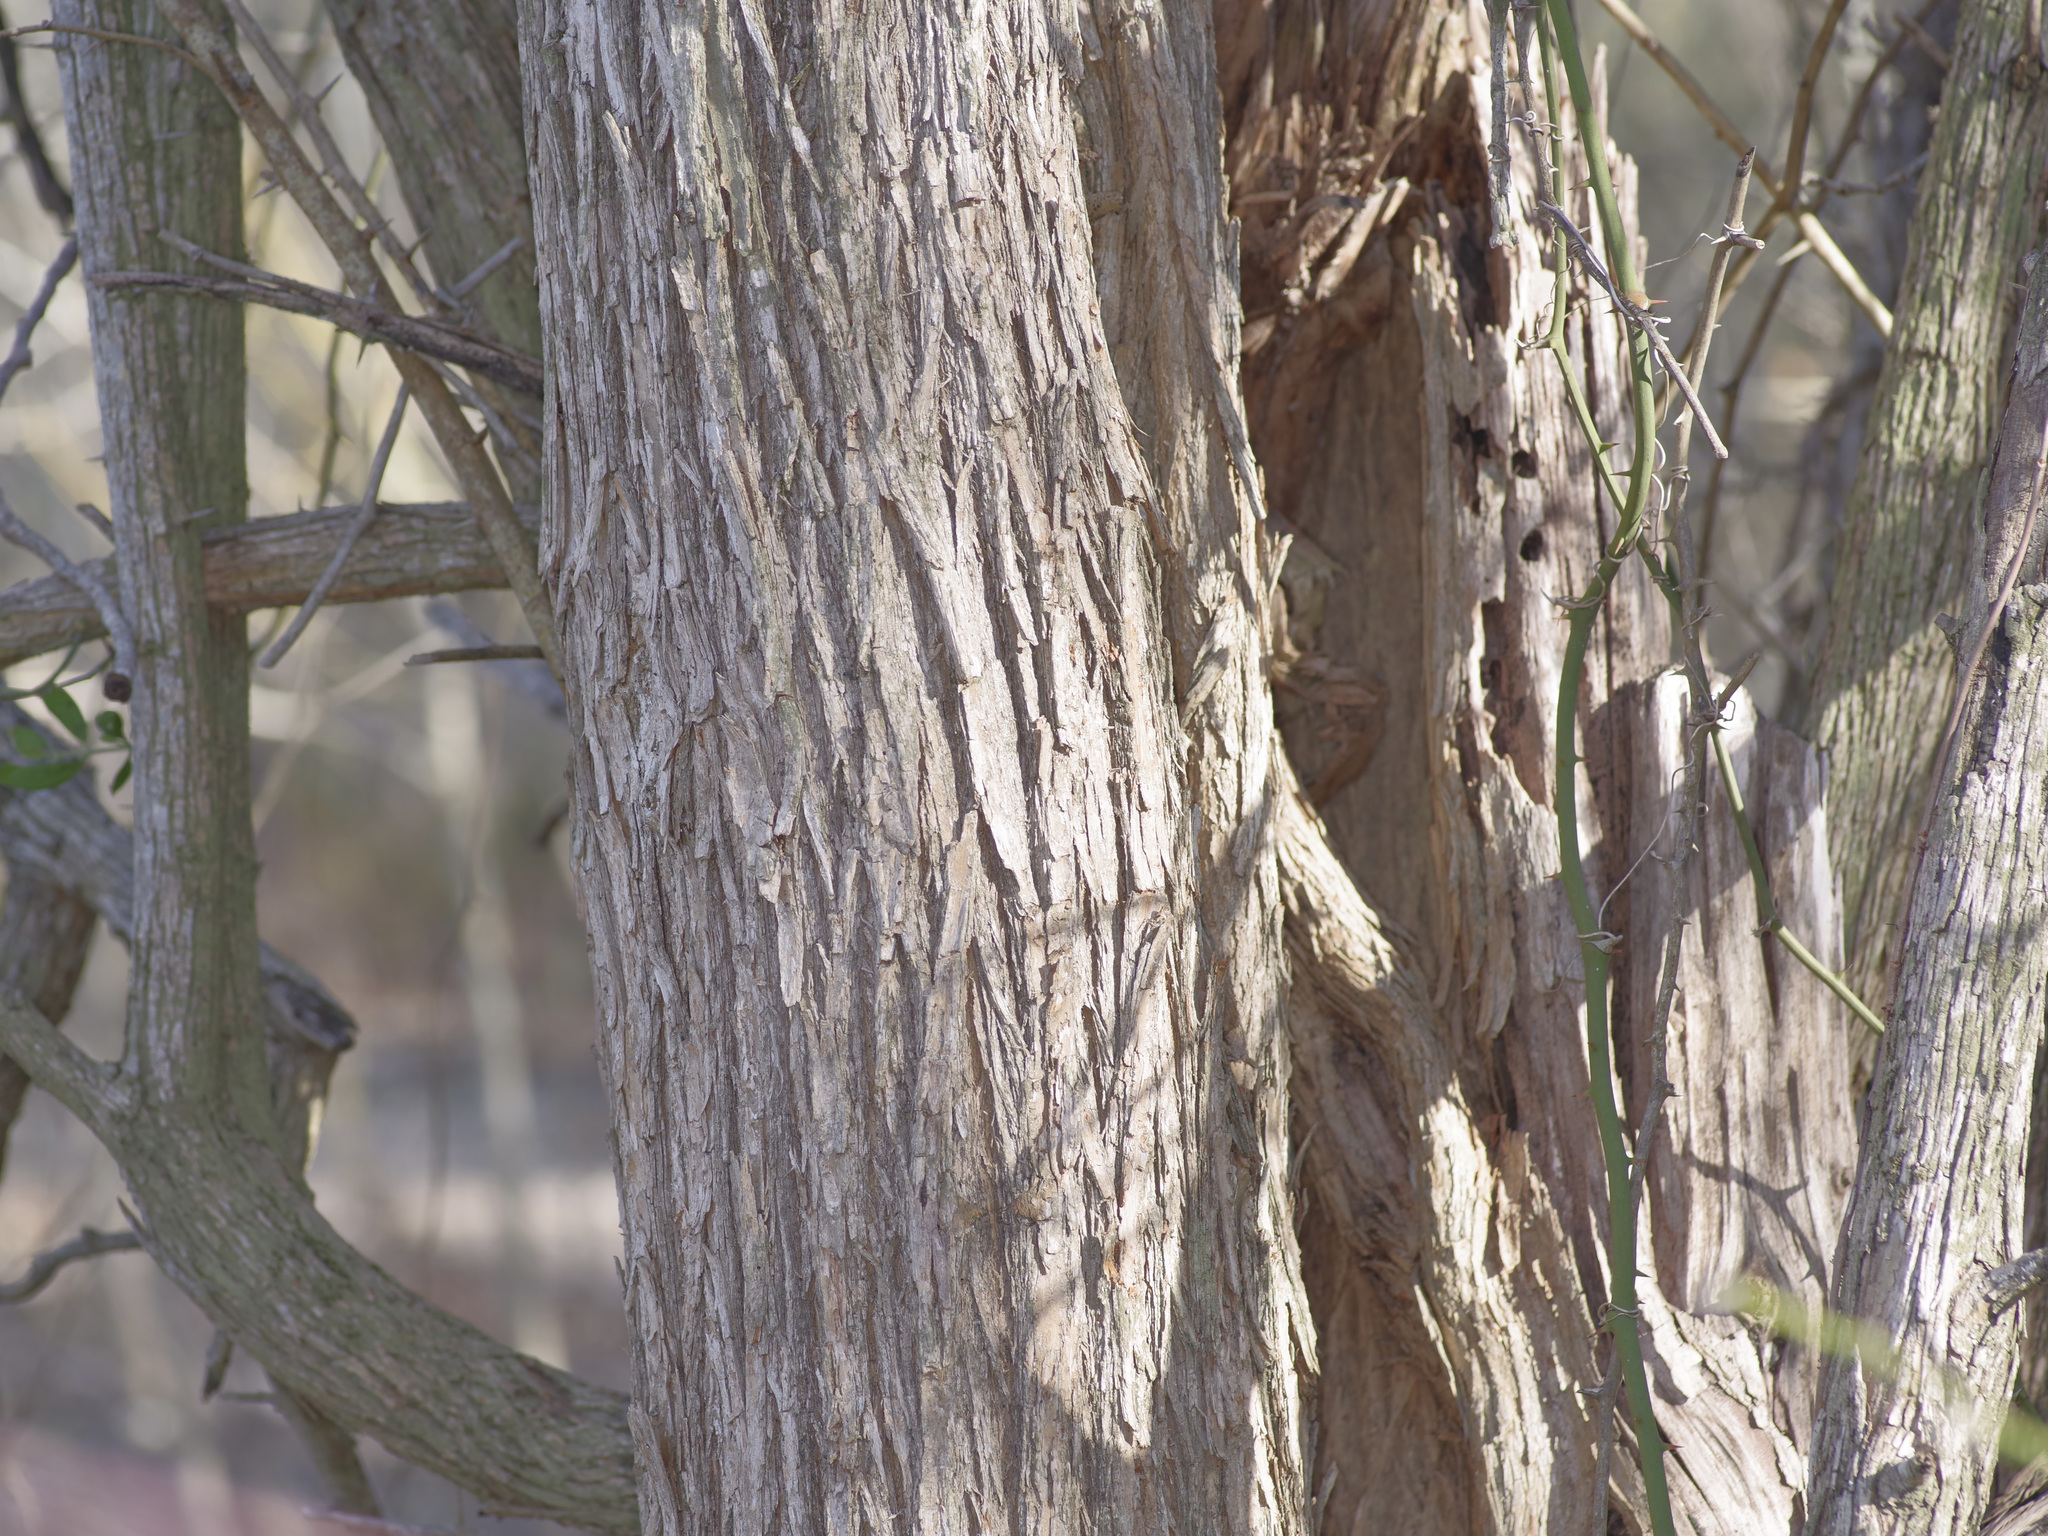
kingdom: Plantae
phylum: Tracheophyta
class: Magnoliopsida
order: Rosales
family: Moraceae
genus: Maclura
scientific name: Maclura pomifera
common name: Osage-orange
